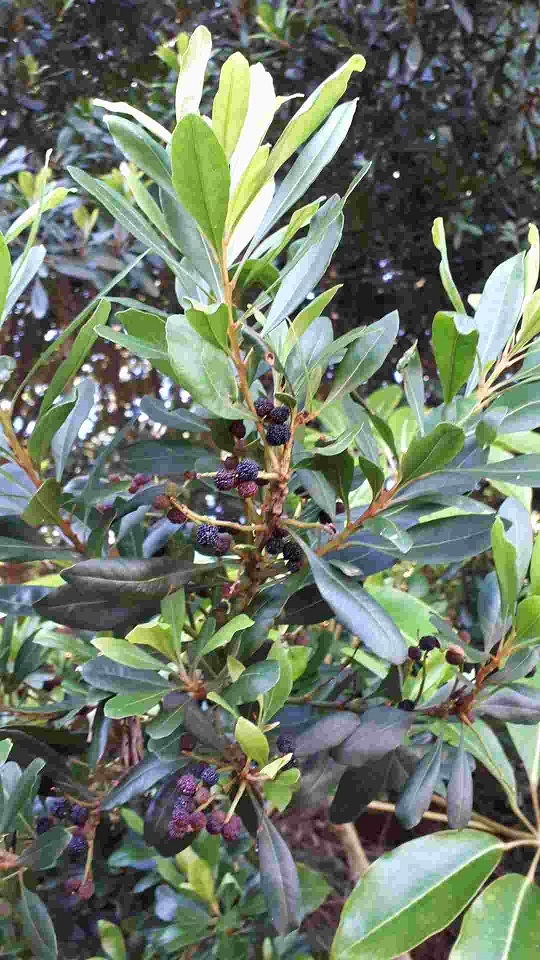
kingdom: Plantae
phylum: Tracheophyta
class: Magnoliopsida
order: Fagales
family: Myricaceae
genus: Morella
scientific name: Morella faya
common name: Firetree
